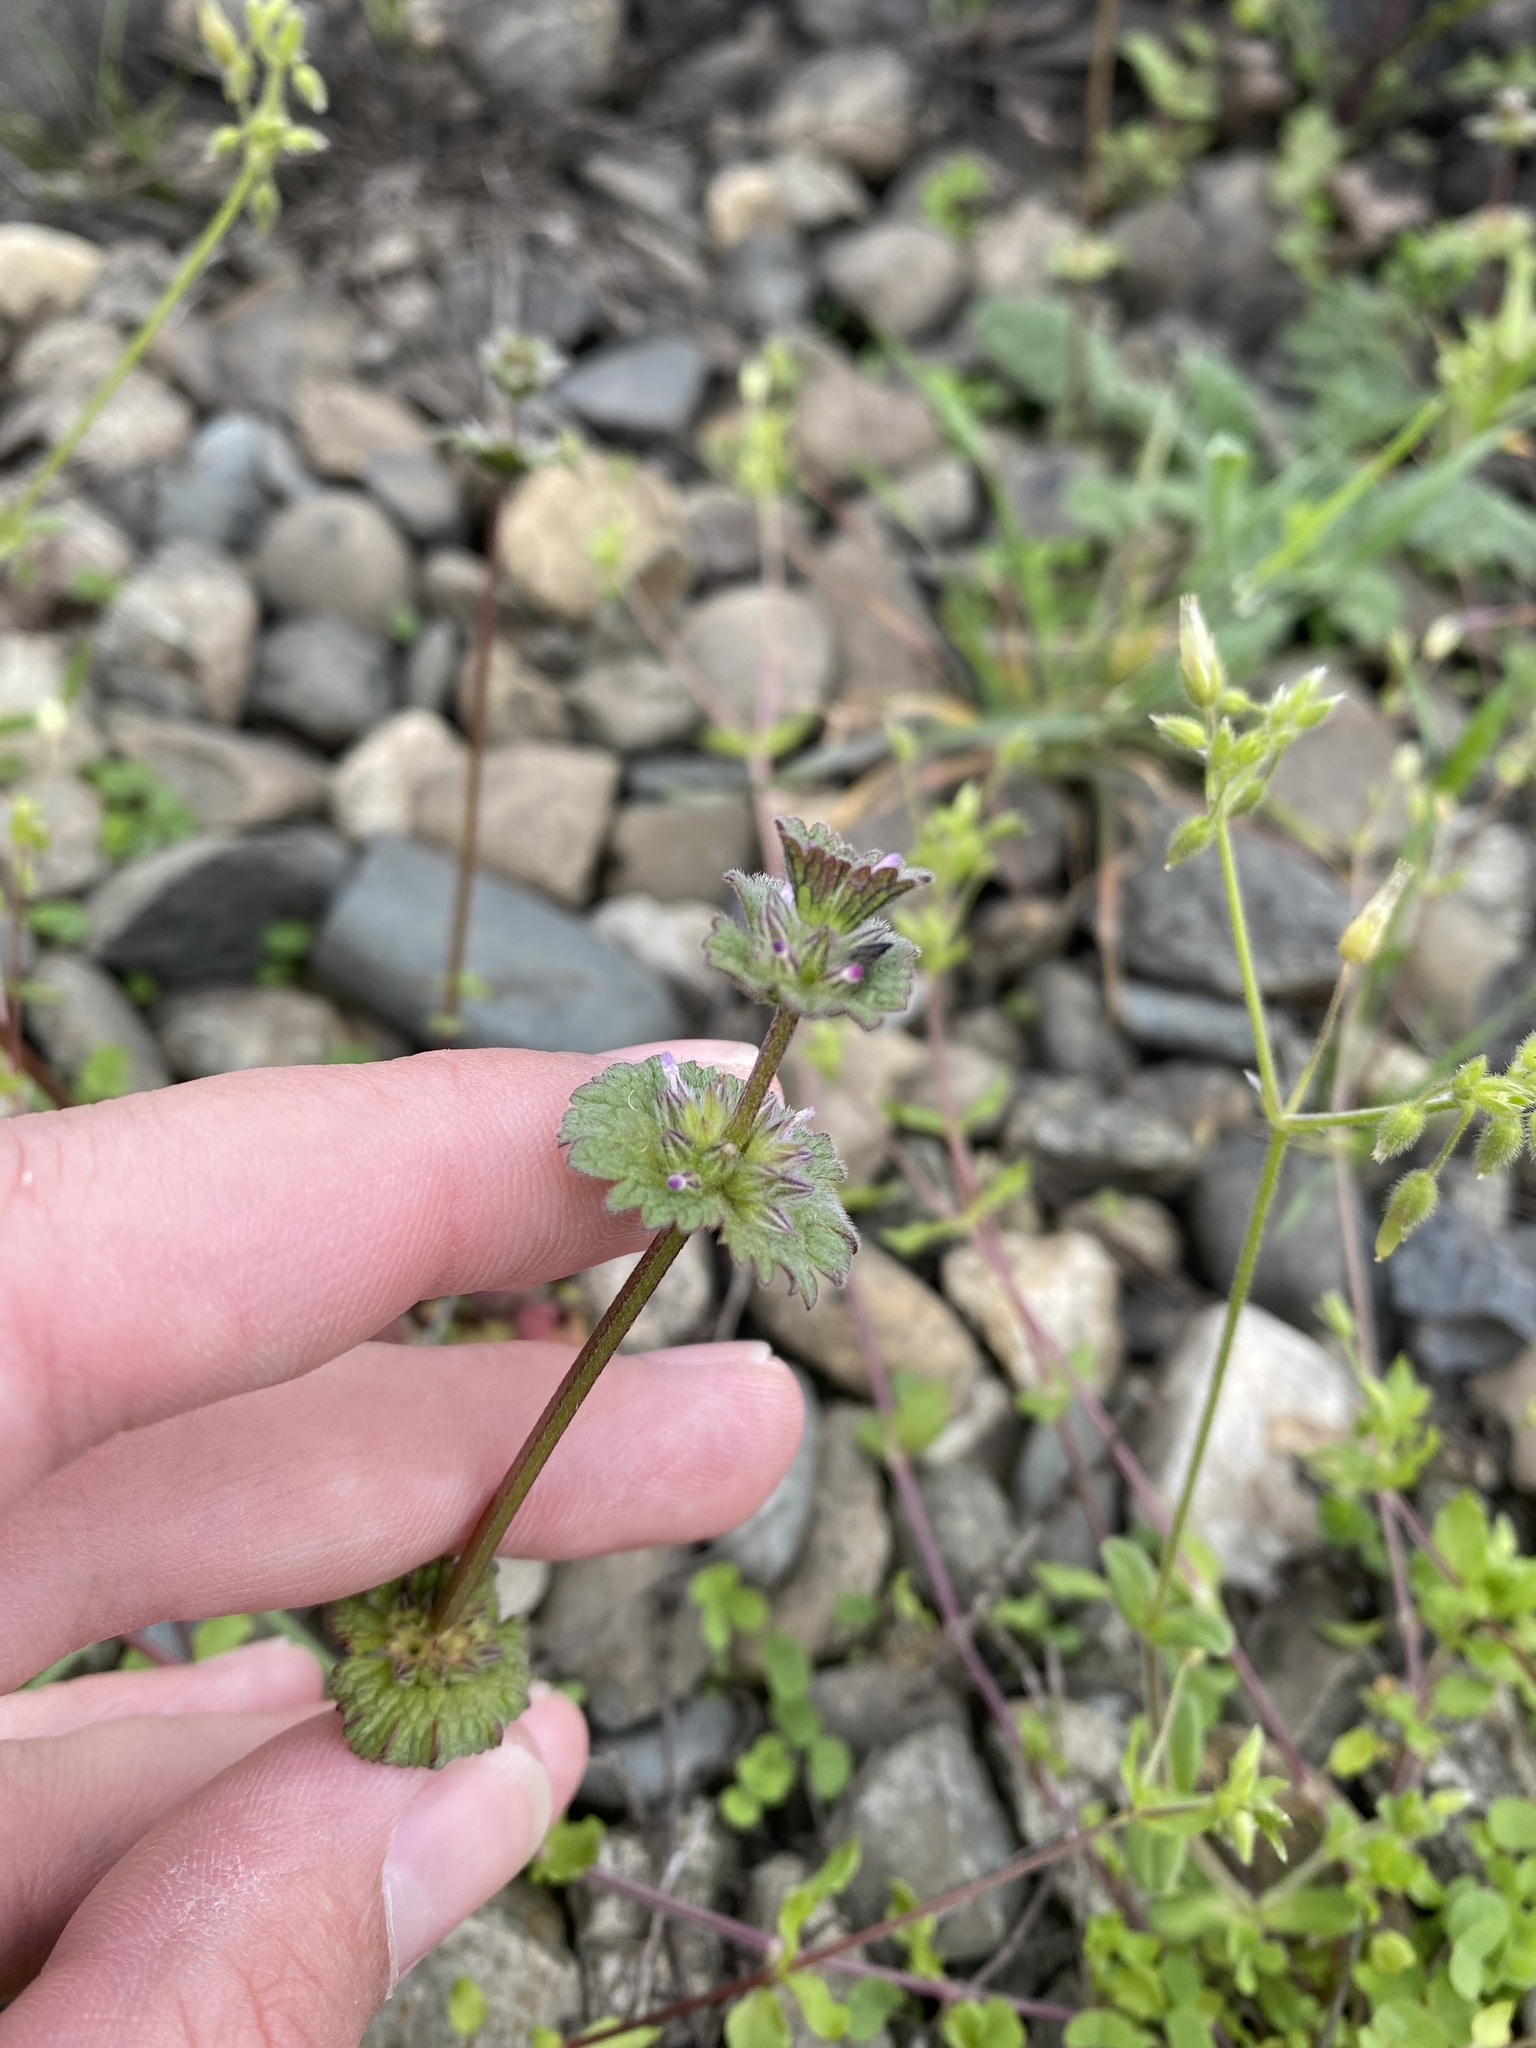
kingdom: Plantae
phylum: Tracheophyta
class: Magnoliopsida
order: Lamiales
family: Lamiaceae
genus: Lamium
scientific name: Lamium amplexicaule
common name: Henbit dead-nettle
